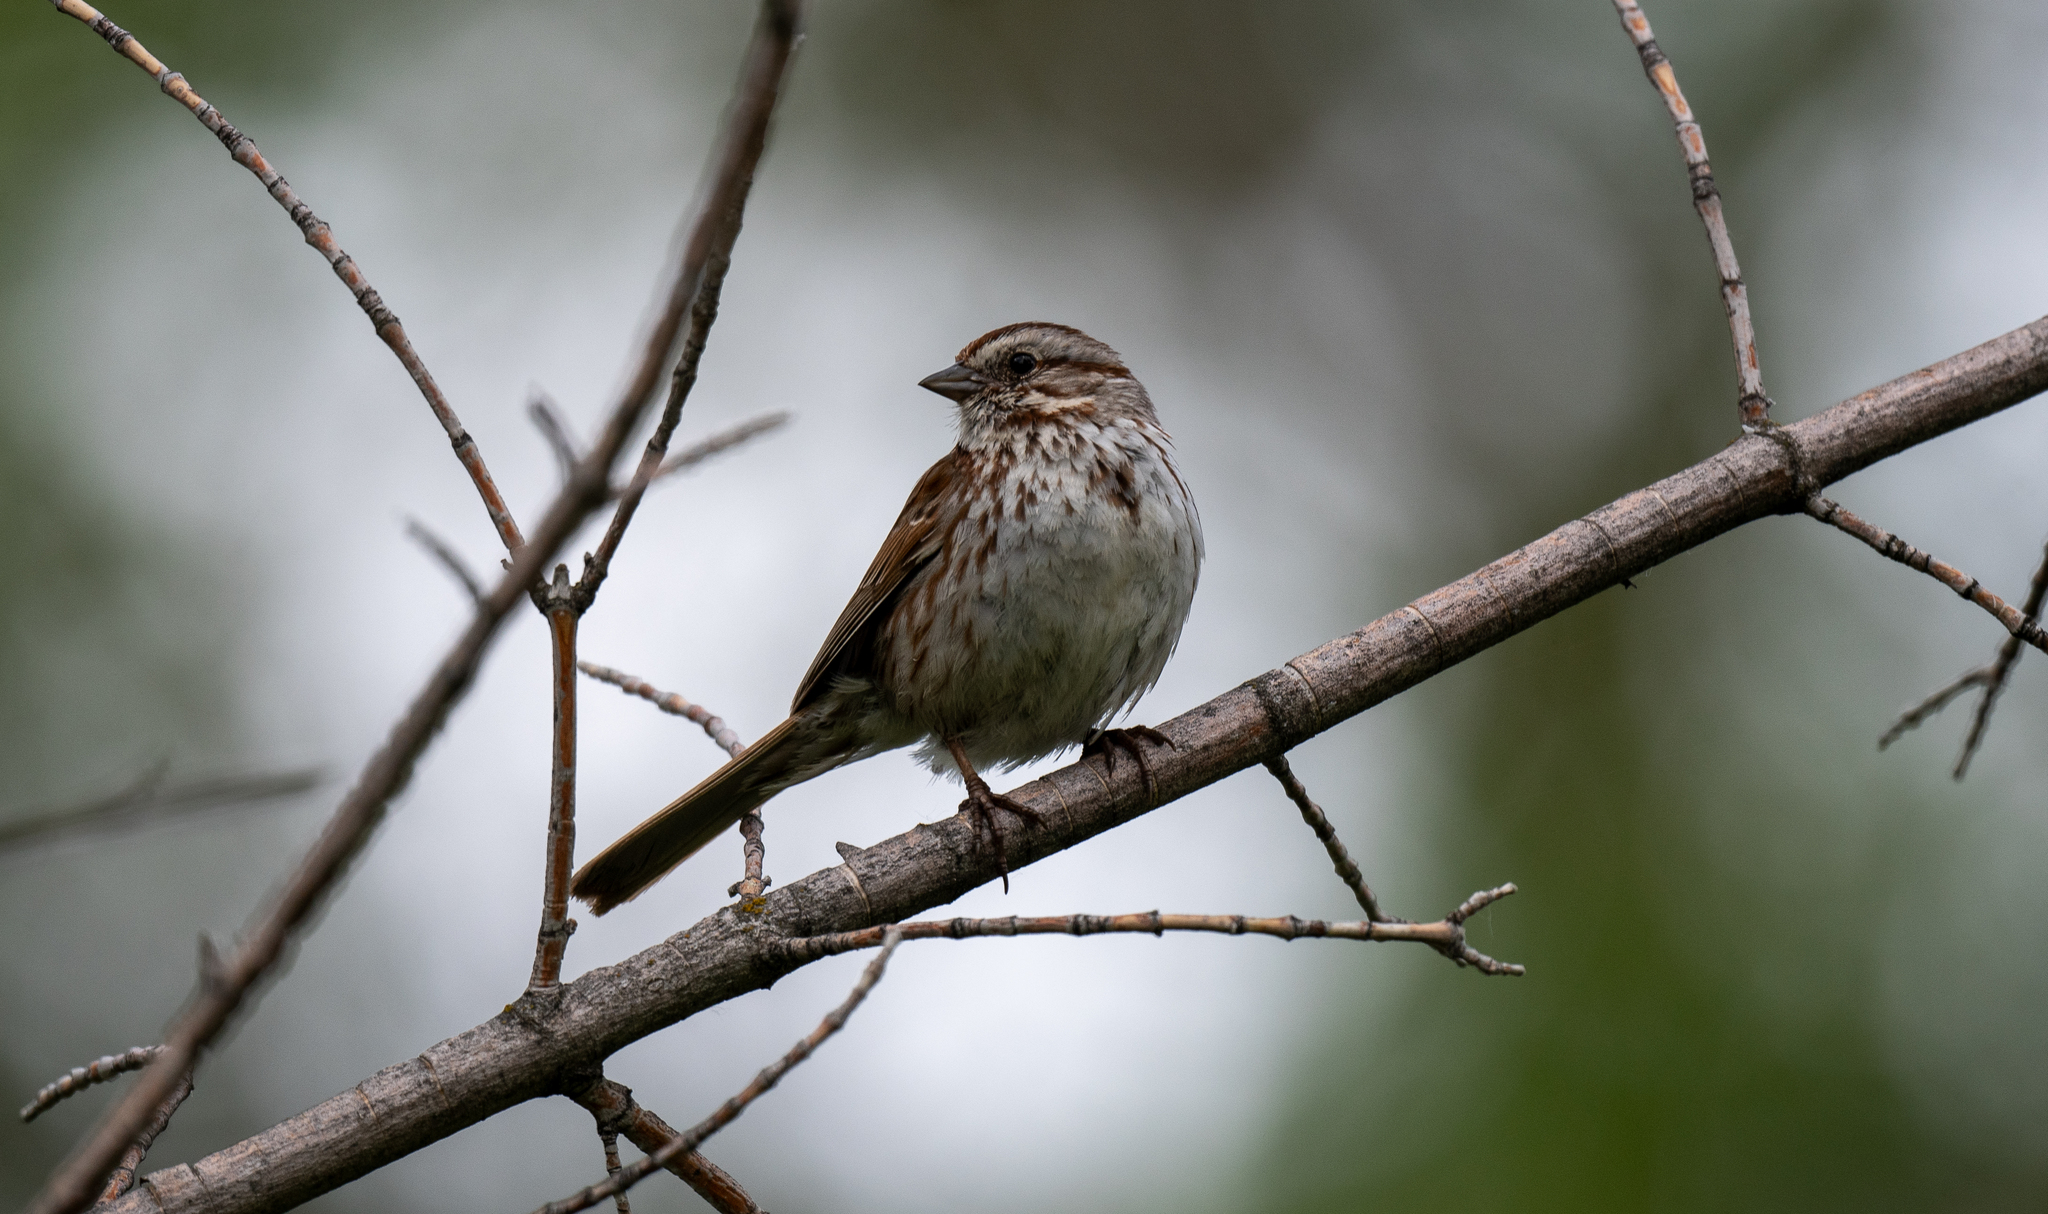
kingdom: Animalia
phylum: Chordata
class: Aves
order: Passeriformes
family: Passerellidae
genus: Melospiza
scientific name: Melospiza melodia
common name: Song sparrow
